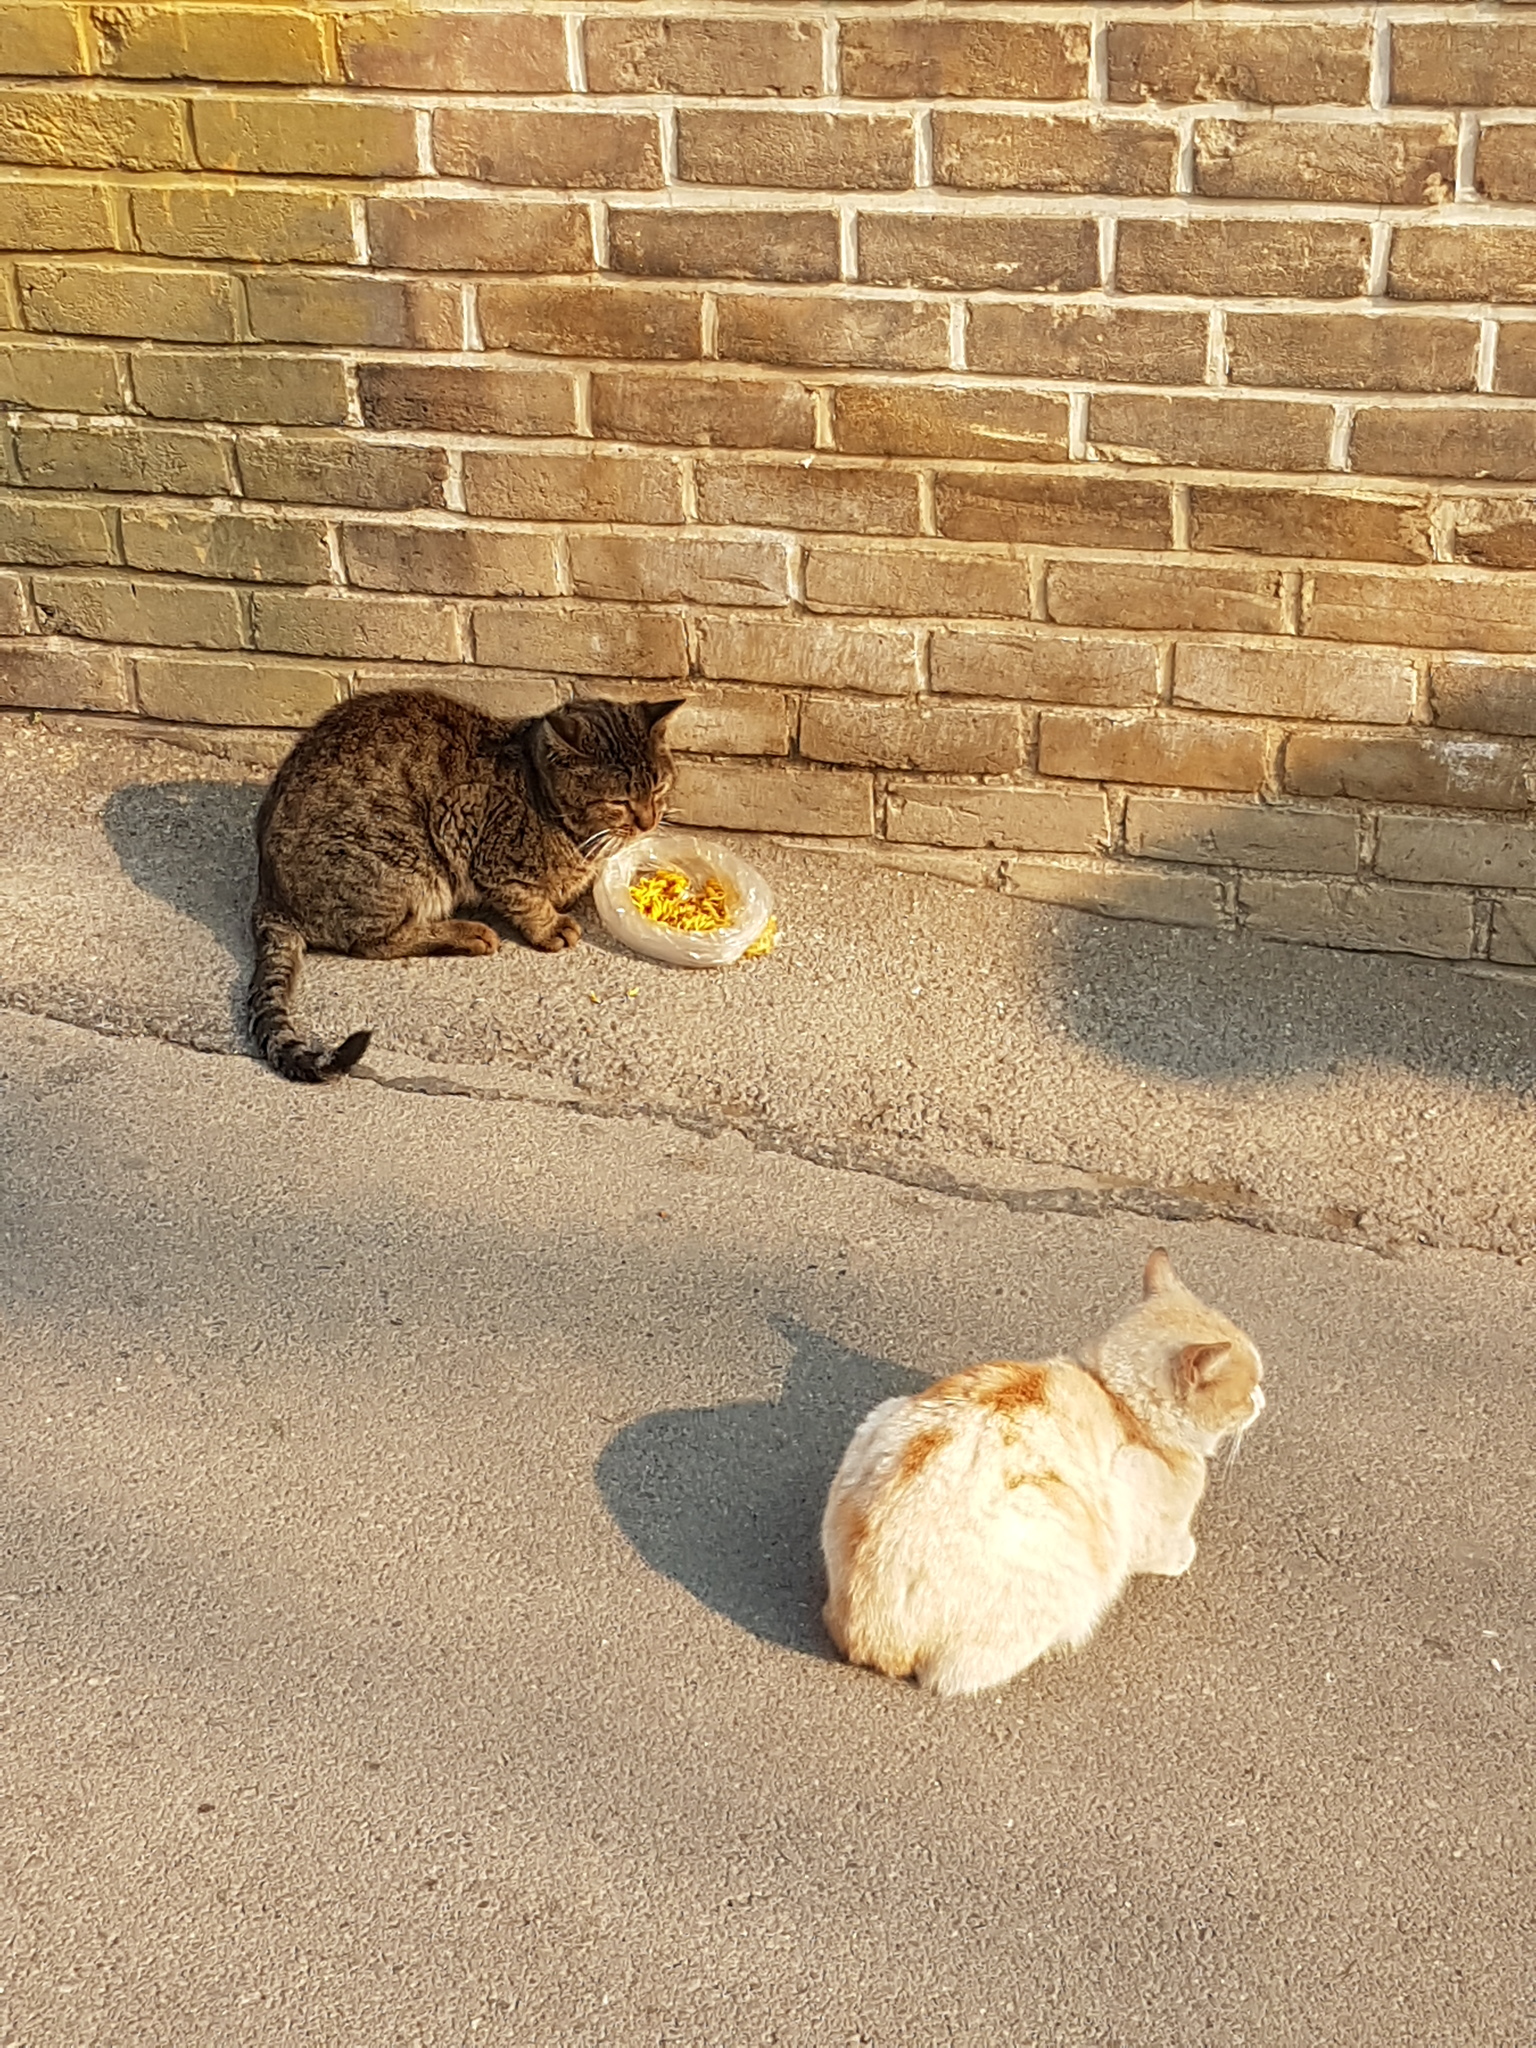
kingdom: Animalia
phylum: Chordata
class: Mammalia
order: Carnivora
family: Felidae
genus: Felis
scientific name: Felis catus
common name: Domestic cat
